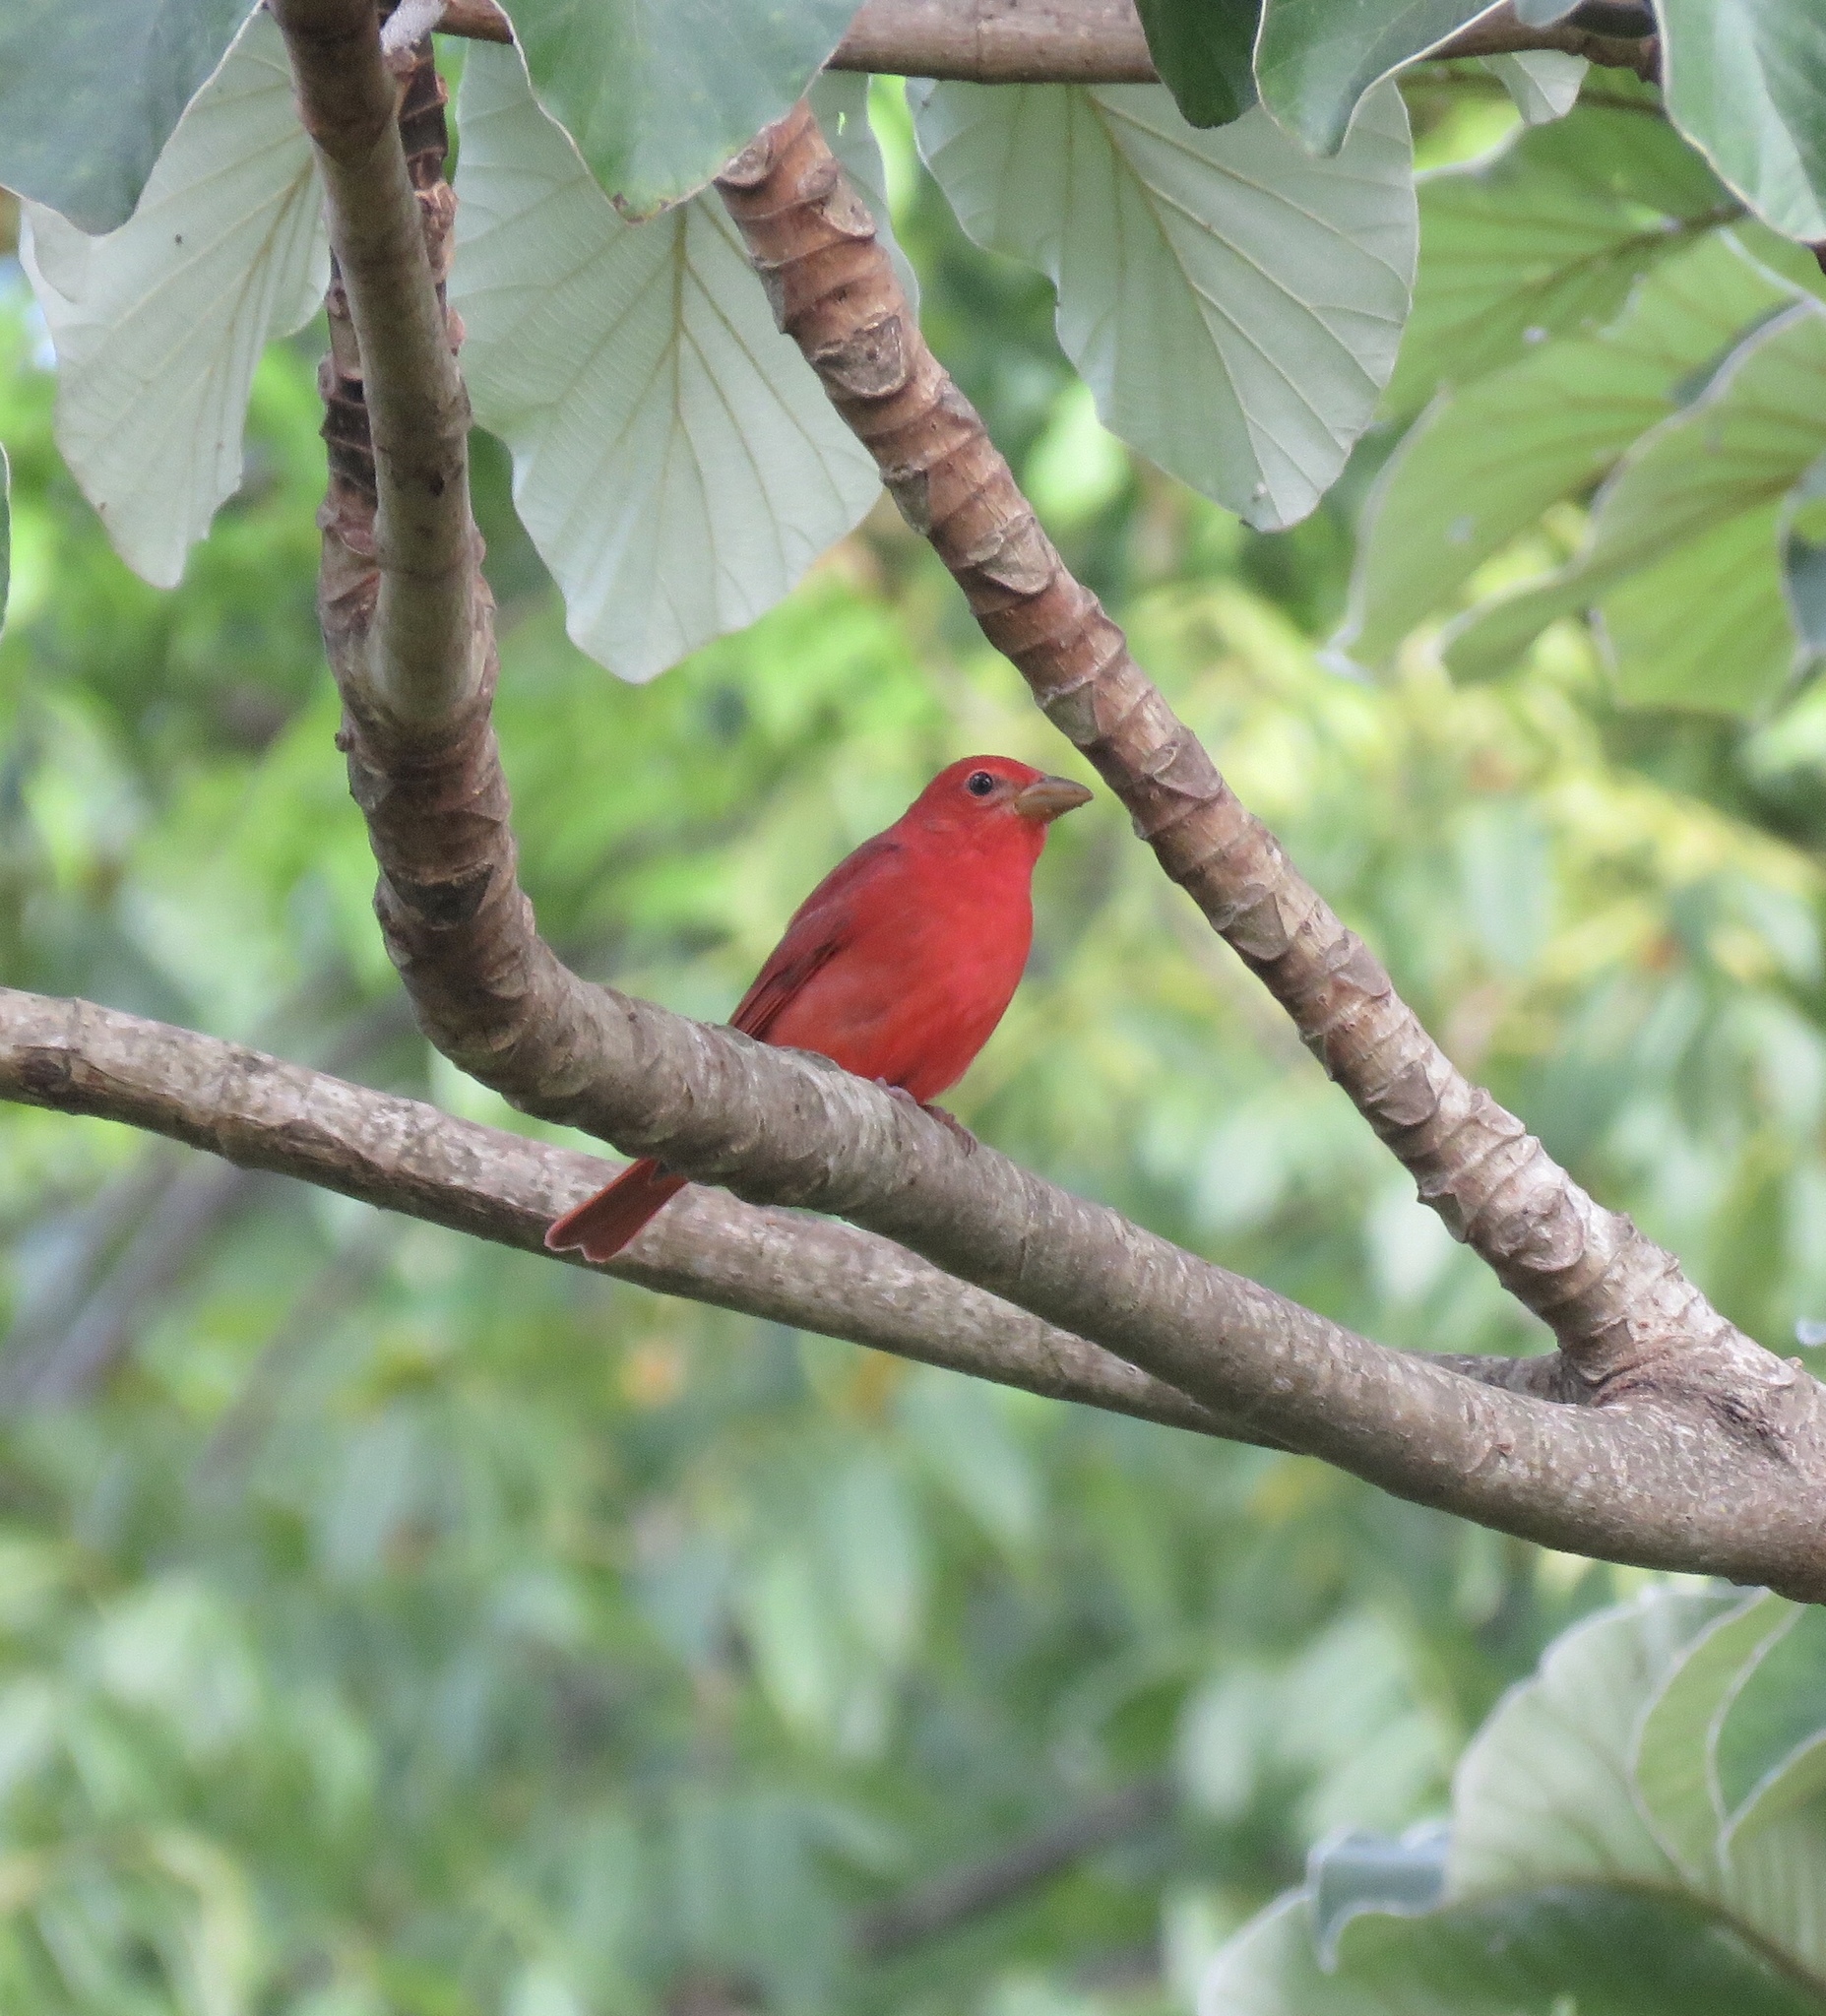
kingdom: Animalia
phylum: Chordata
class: Aves
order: Passeriformes
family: Cardinalidae
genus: Piranga
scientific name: Piranga rubra
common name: Summer tanager
